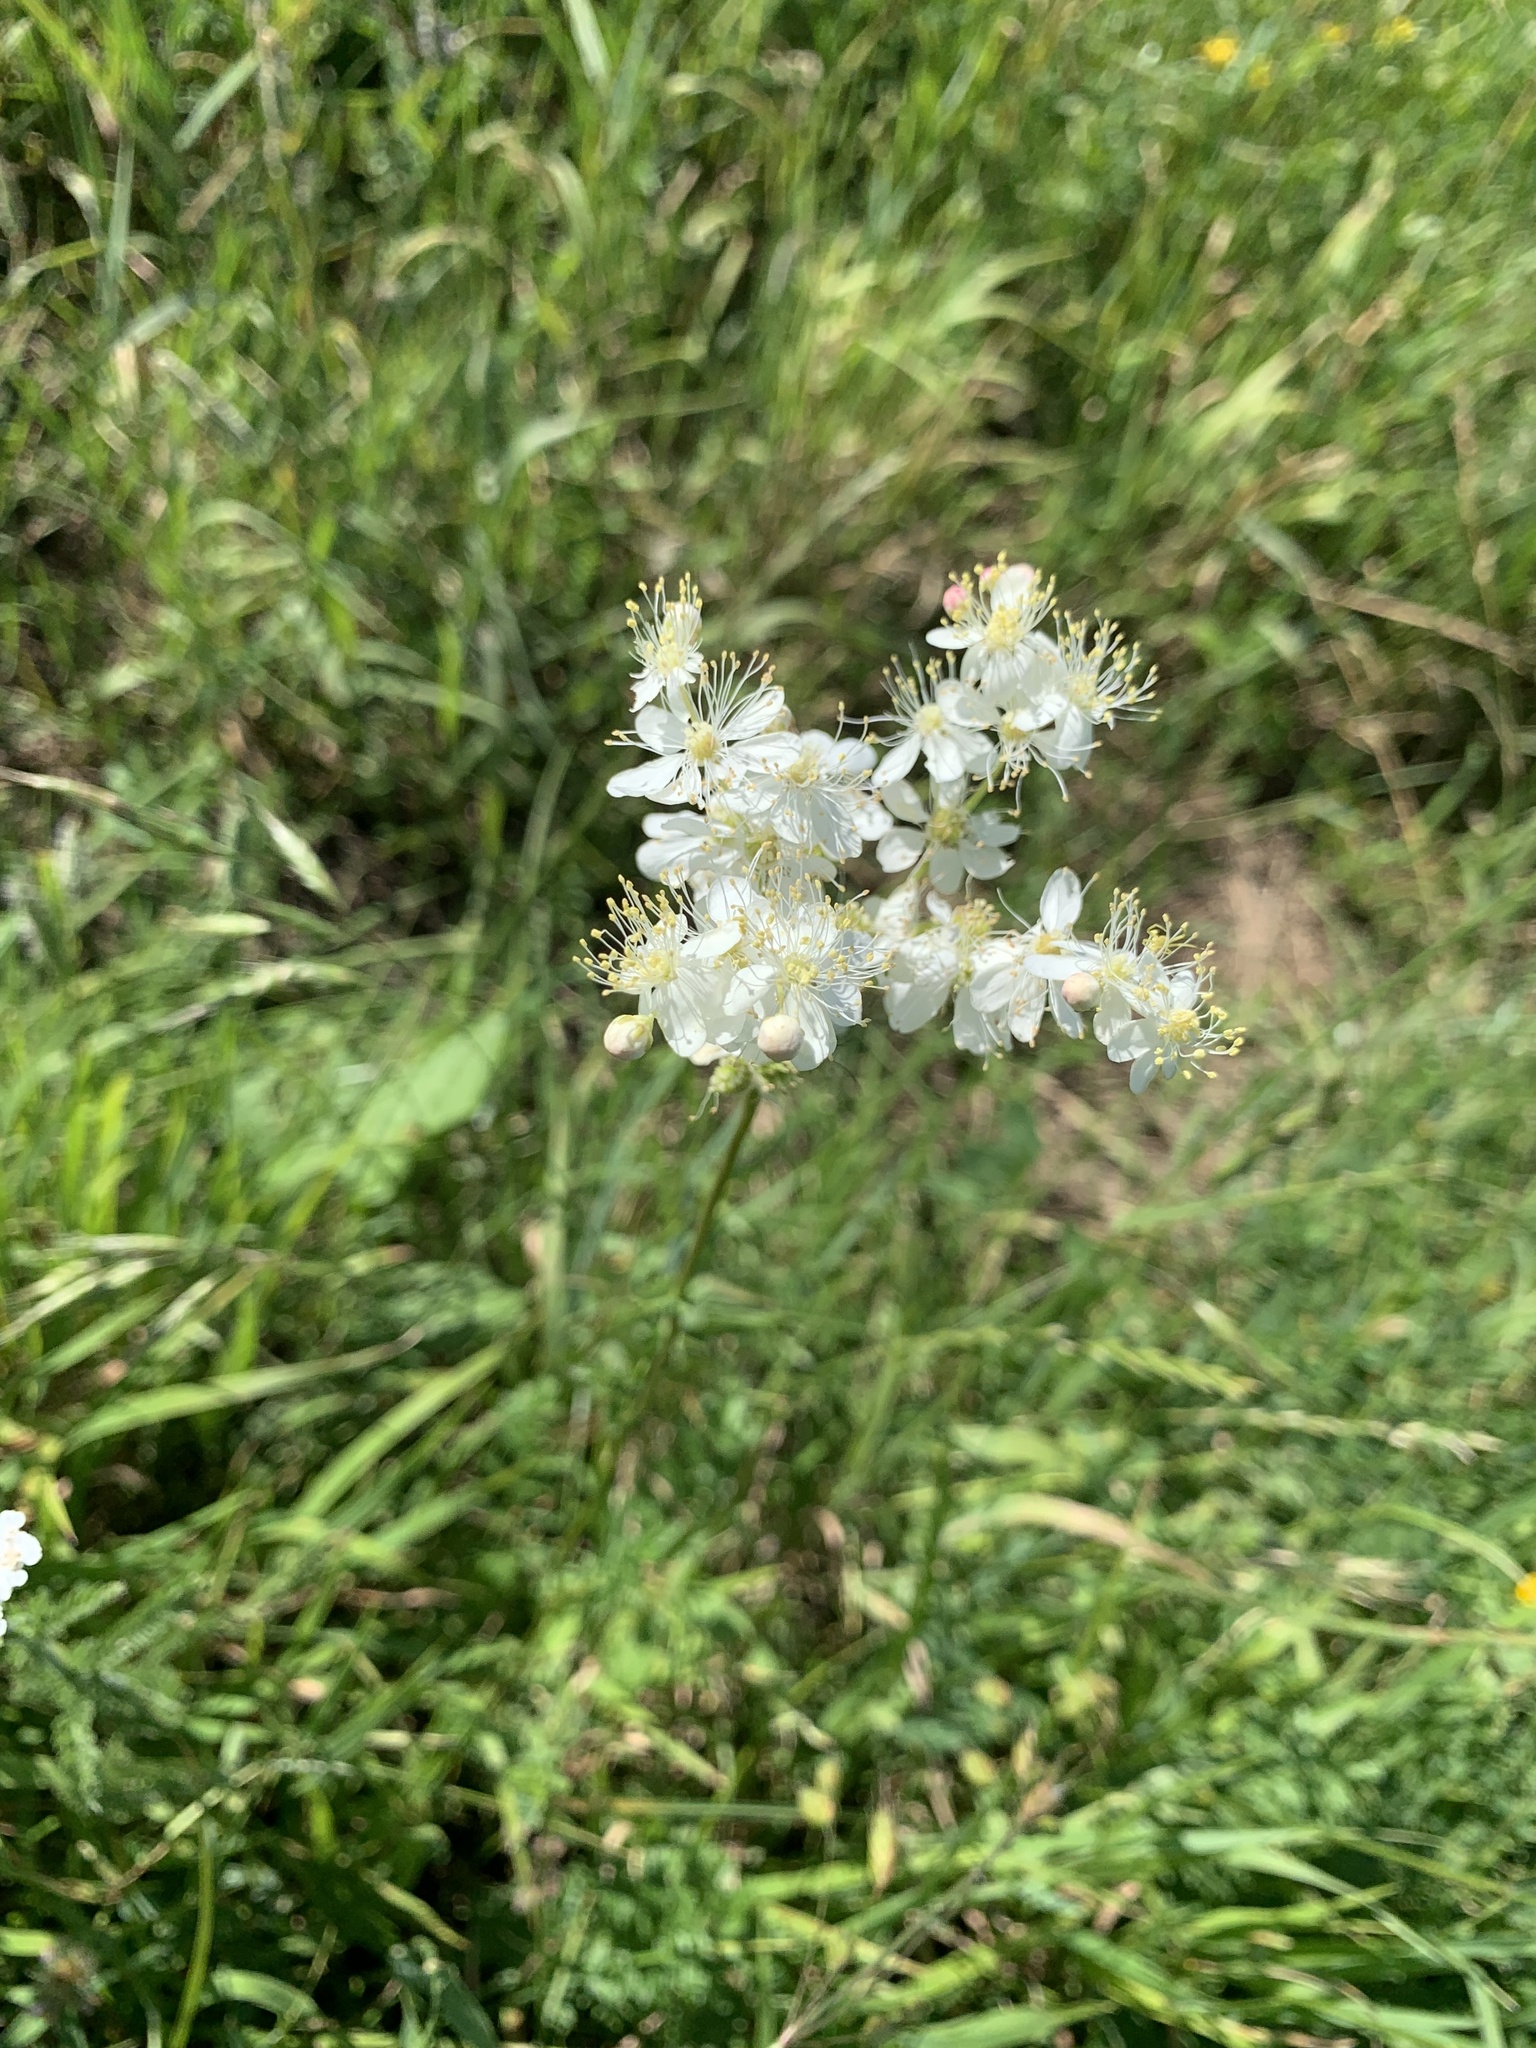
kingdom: Plantae
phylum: Tracheophyta
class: Magnoliopsida
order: Rosales
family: Rosaceae
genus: Filipendula
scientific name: Filipendula vulgaris
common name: Dropwort
